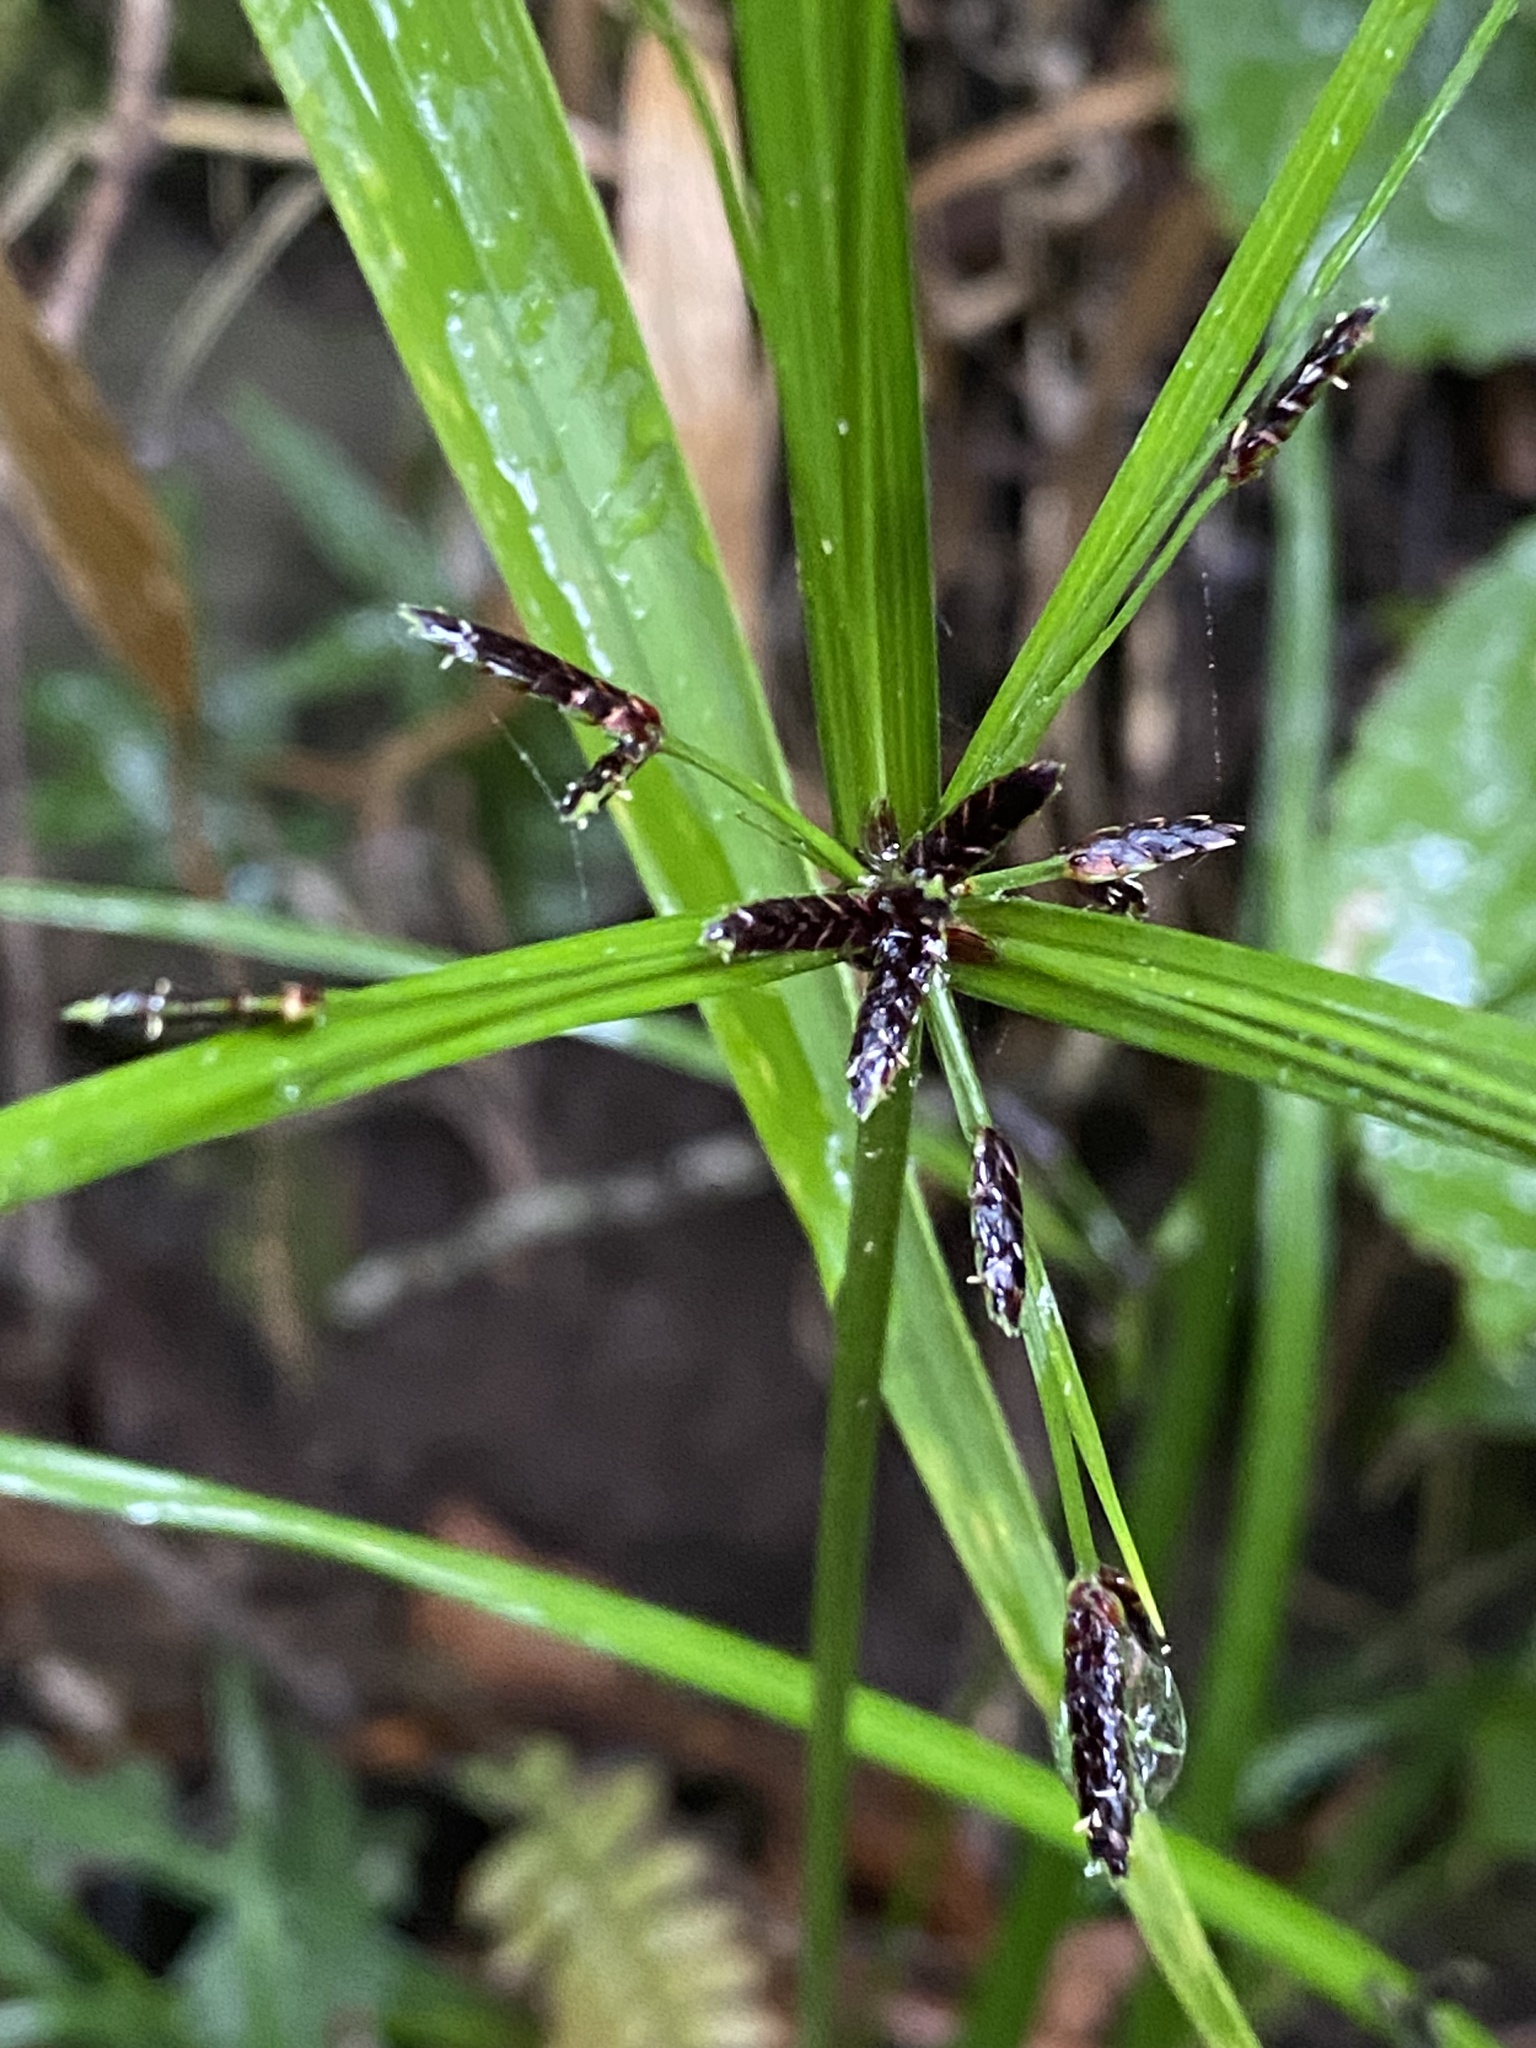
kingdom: Plantae
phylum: Tracheophyta
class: Liliopsida
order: Poales
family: Cyperaceae
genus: Cyperus
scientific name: Cyperus tetraphyllus
